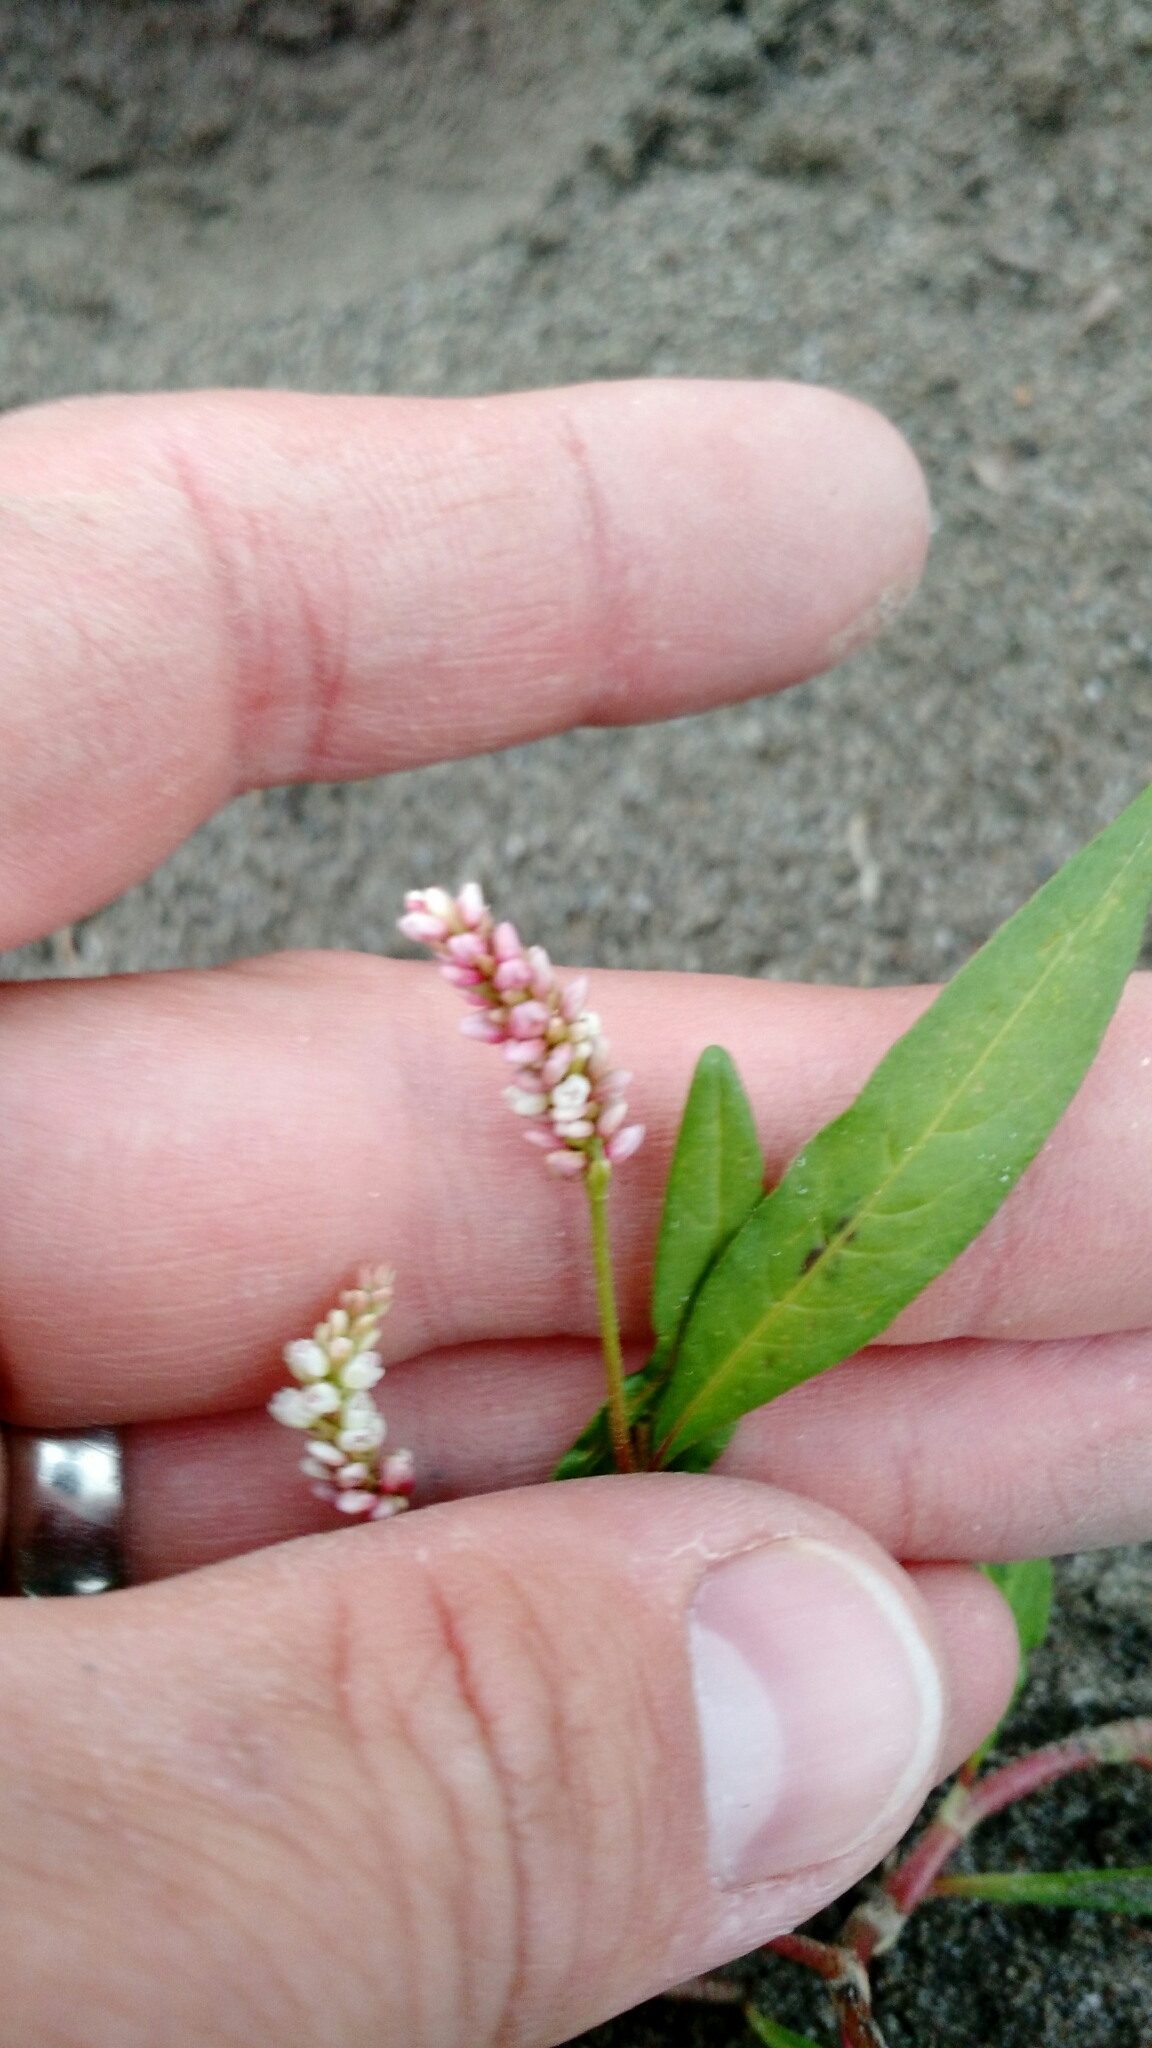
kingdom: Plantae
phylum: Tracheophyta
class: Magnoliopsida
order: Caryophyllales
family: Polygonaceae
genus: Persicaria
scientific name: Persicaria maculosa
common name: Redshank
